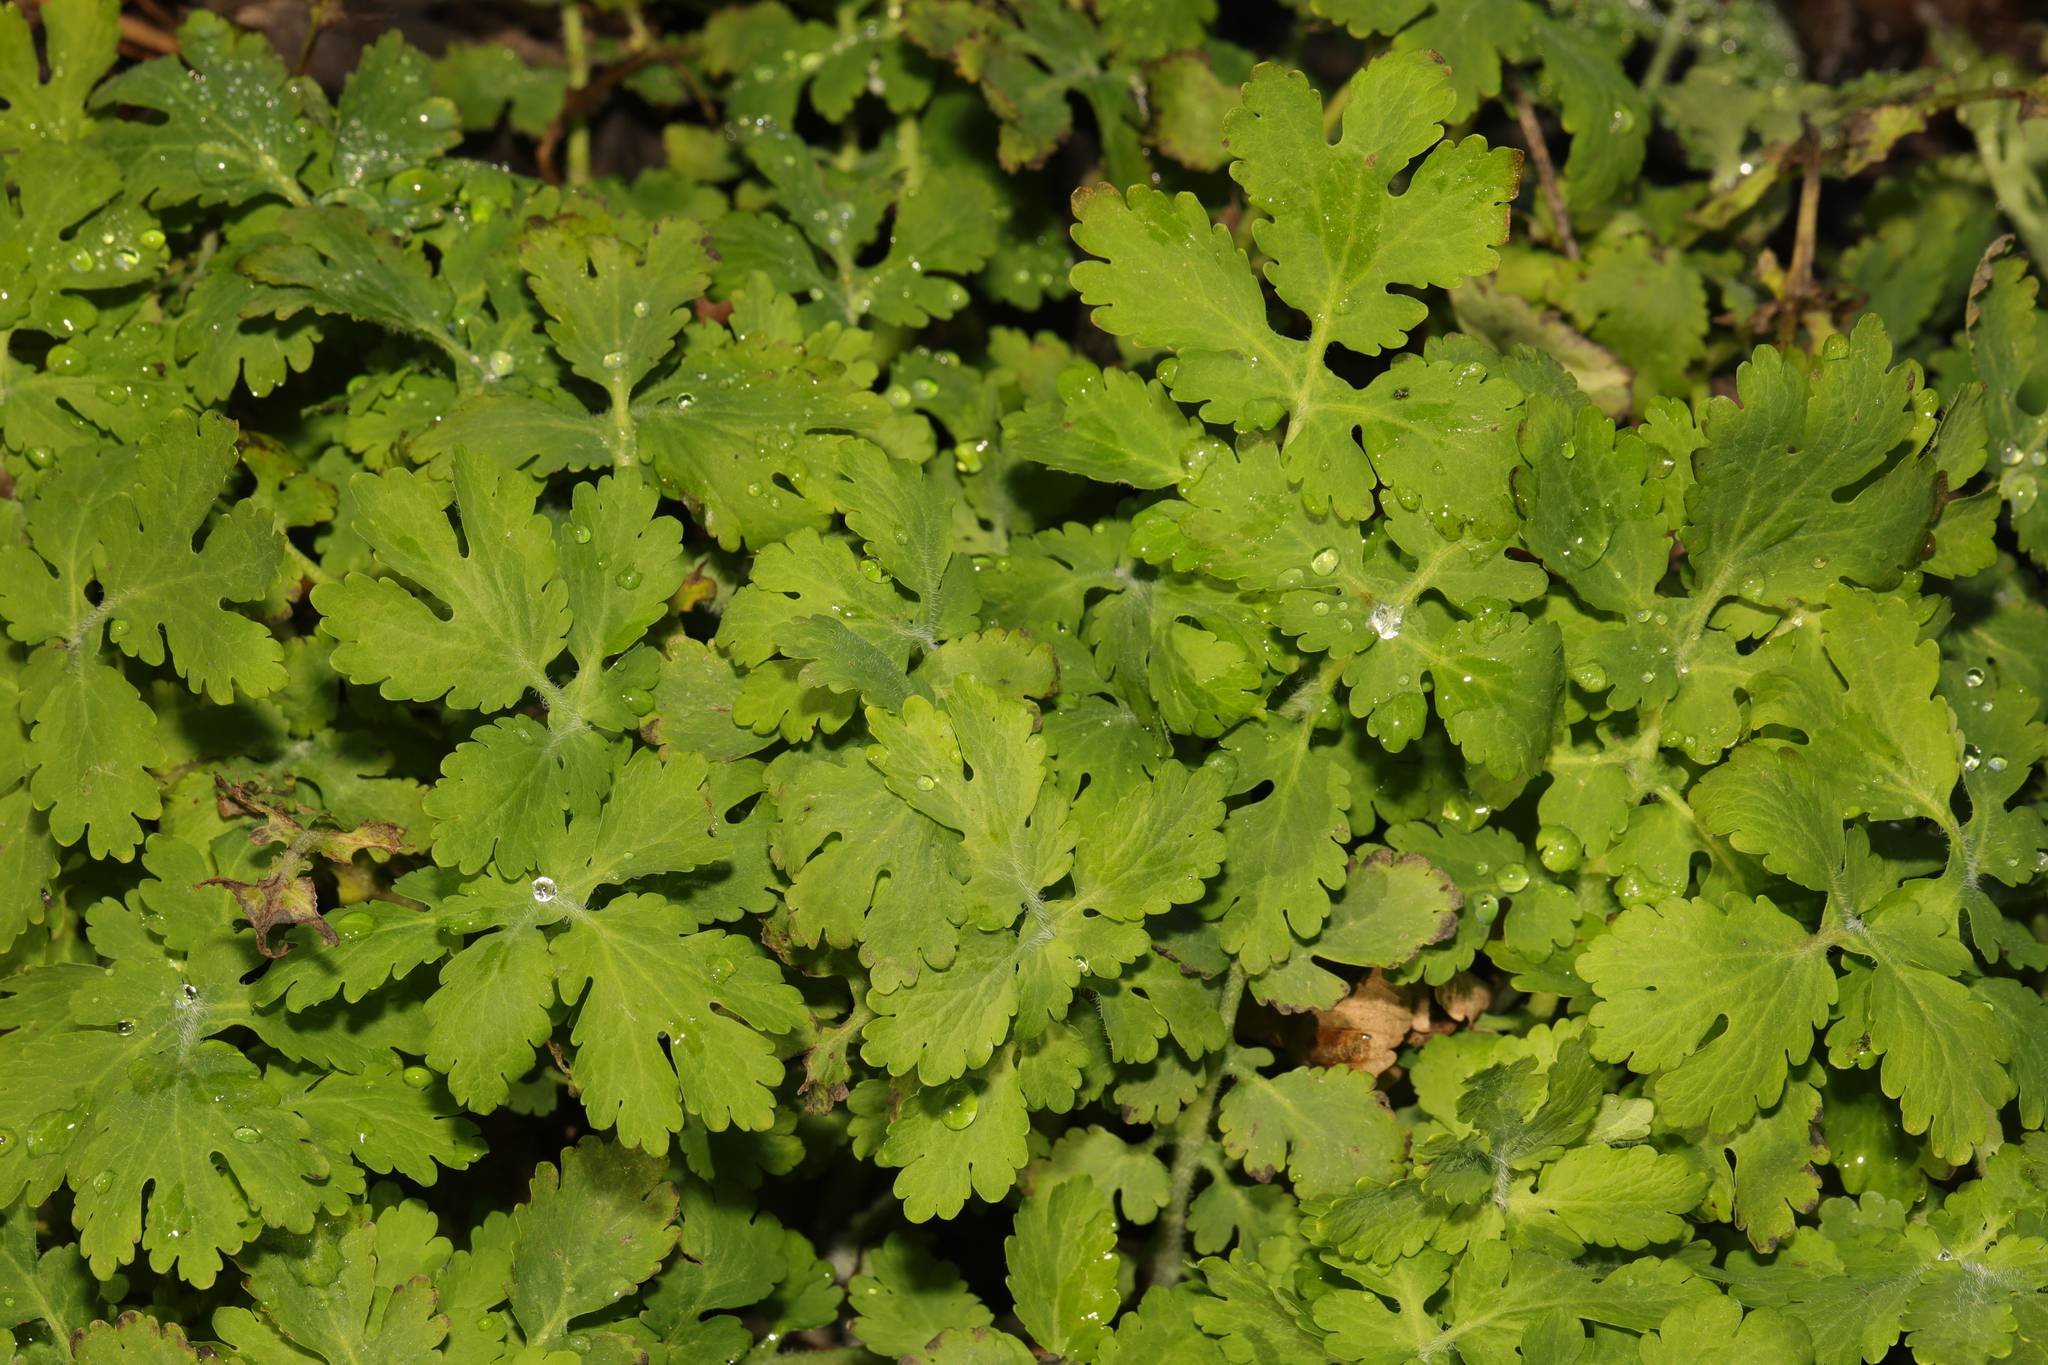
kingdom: Plantae
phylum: Tracheophyta
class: Magnoliopsida
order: Ranunculales
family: Papaveraceae
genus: Chelidonium
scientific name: Chelidonium majus
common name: Greater celandine
